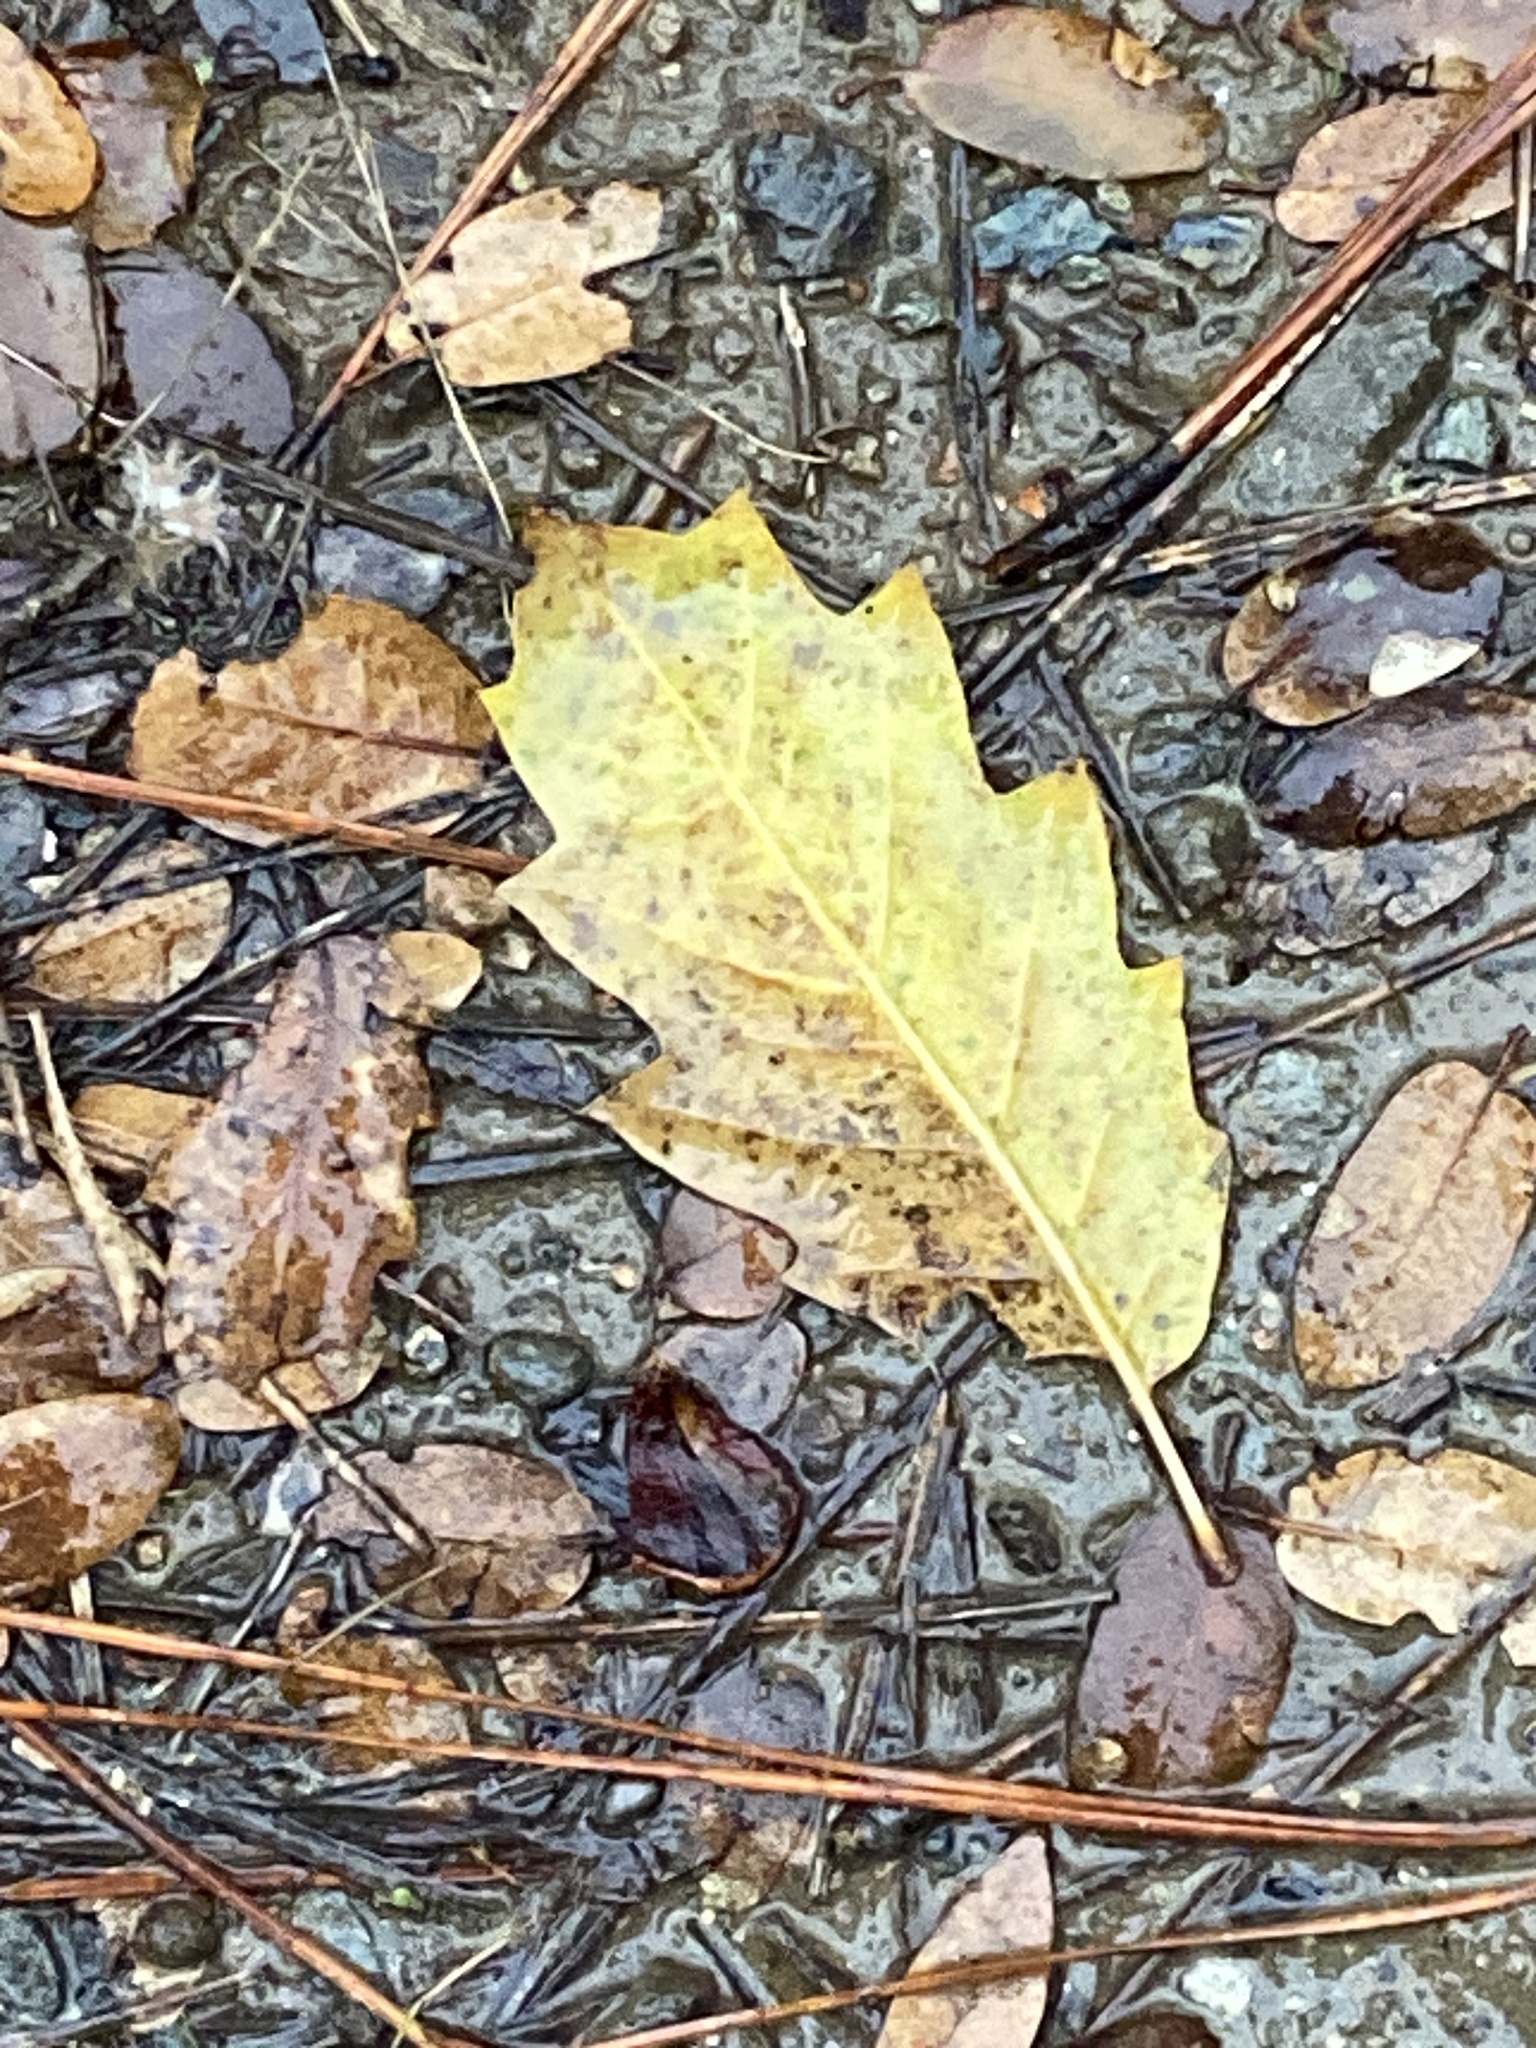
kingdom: Plantae
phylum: Tracheophyta
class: Magnoliopsida
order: Fagales
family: Fagaceae
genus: Quercus
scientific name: Quercus morehus
